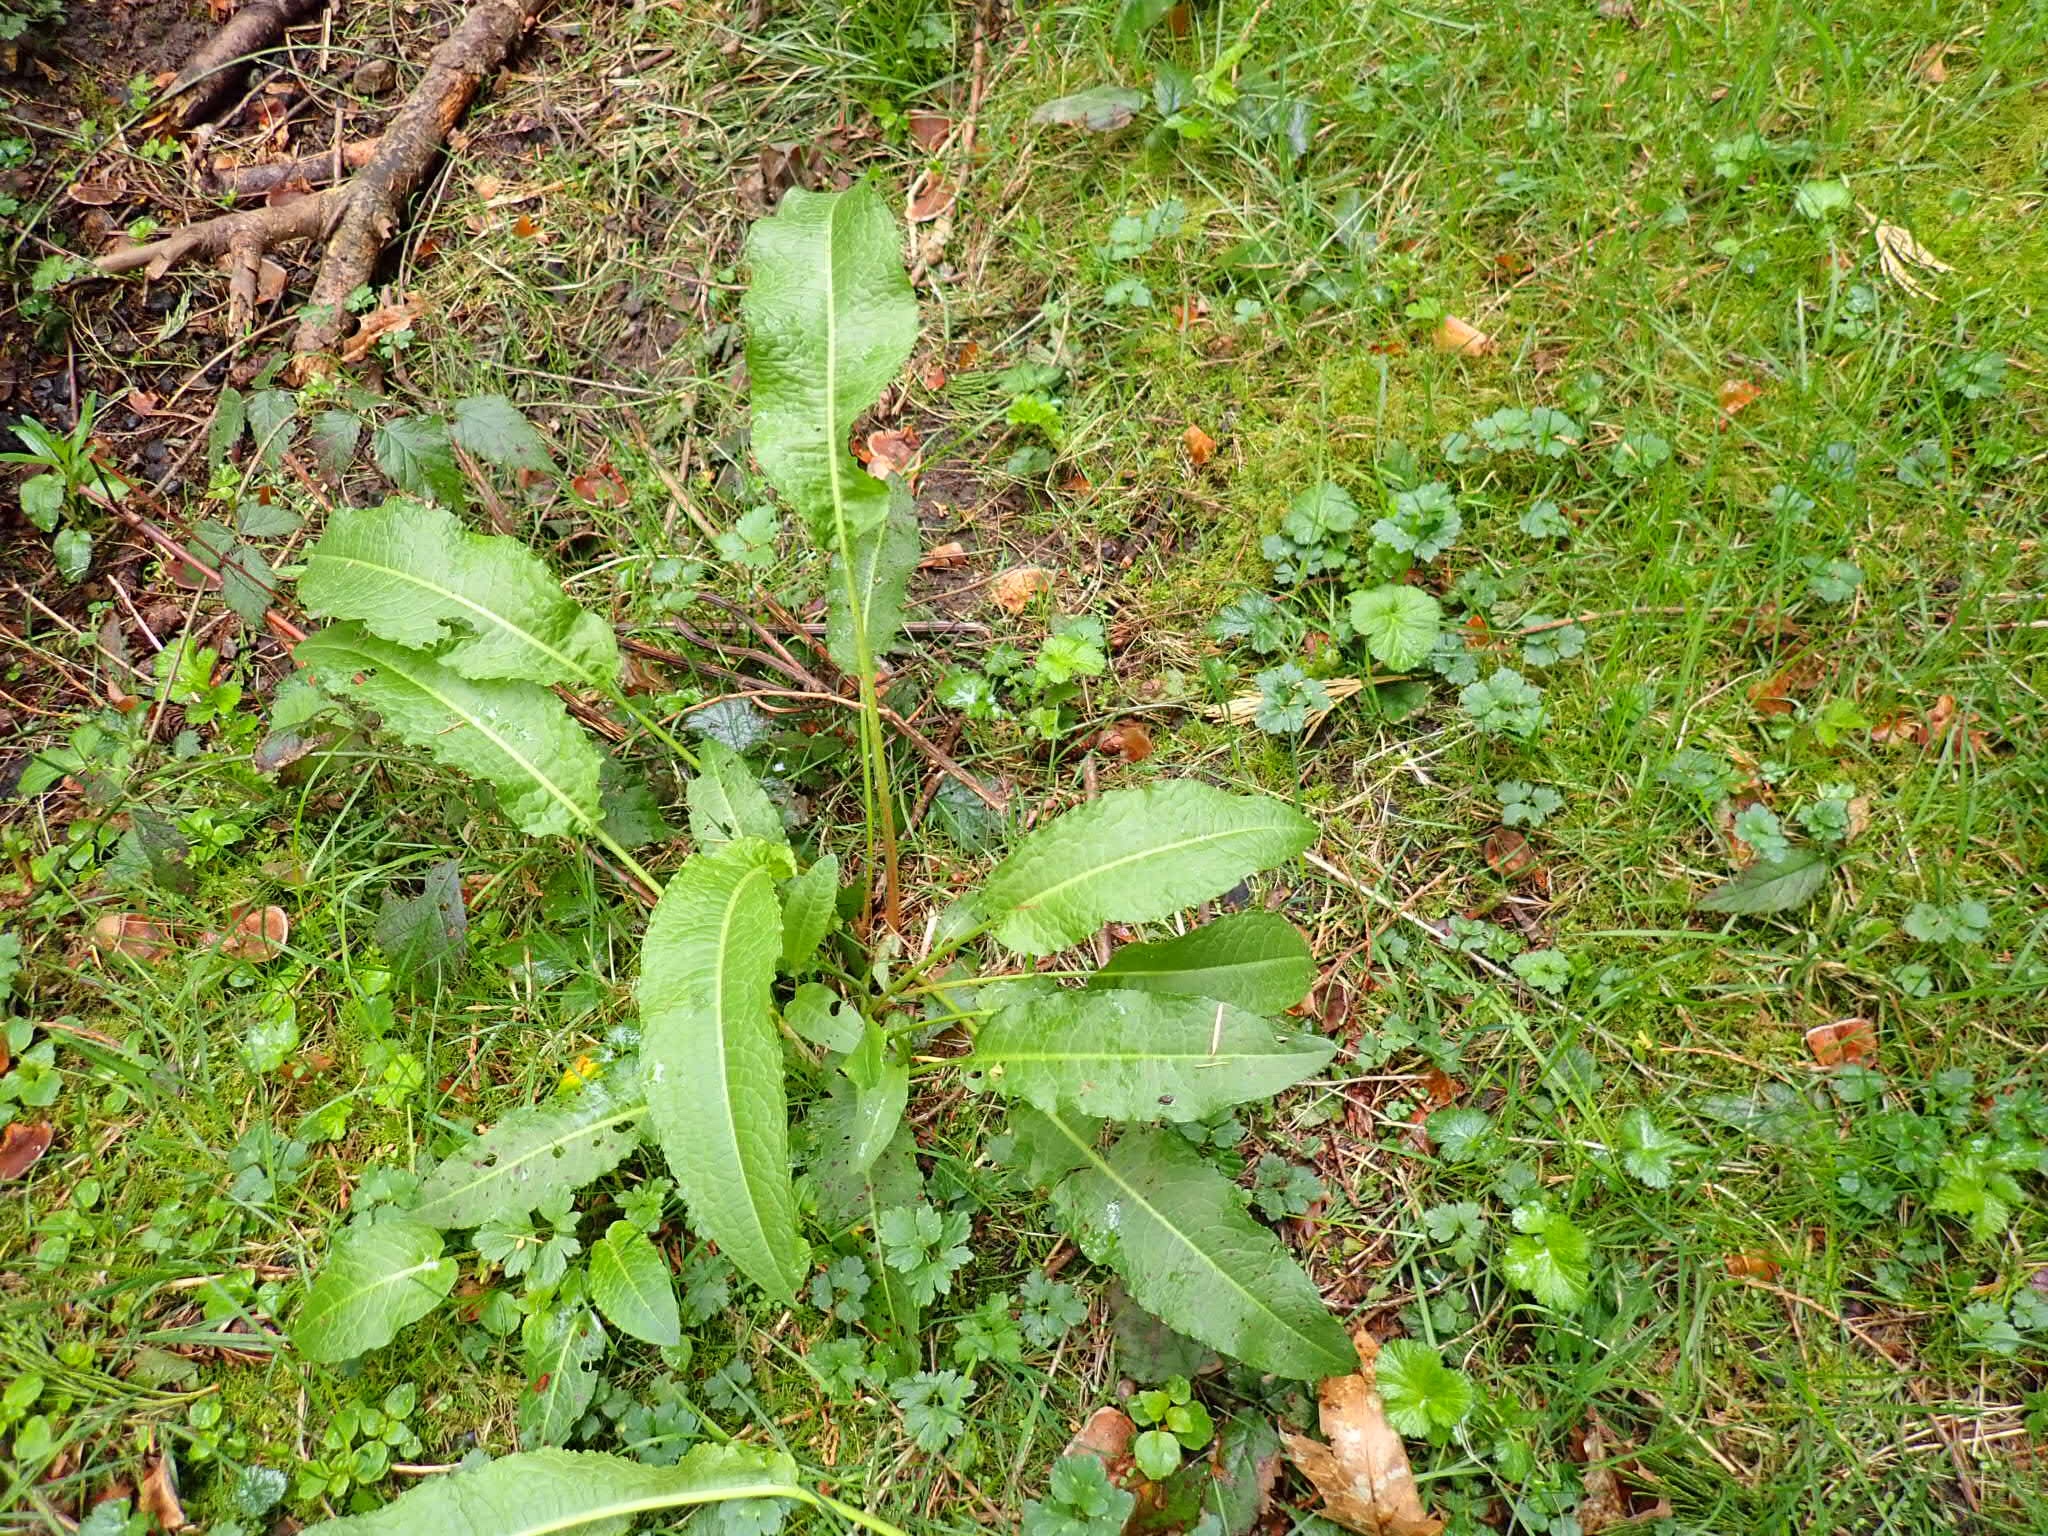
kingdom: Plantae
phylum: Tracheophyta
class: Magnoliopsida
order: Caryophyllales
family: Polygonaceae
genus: Rumex
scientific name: Rumex crispus
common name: Curled dock
